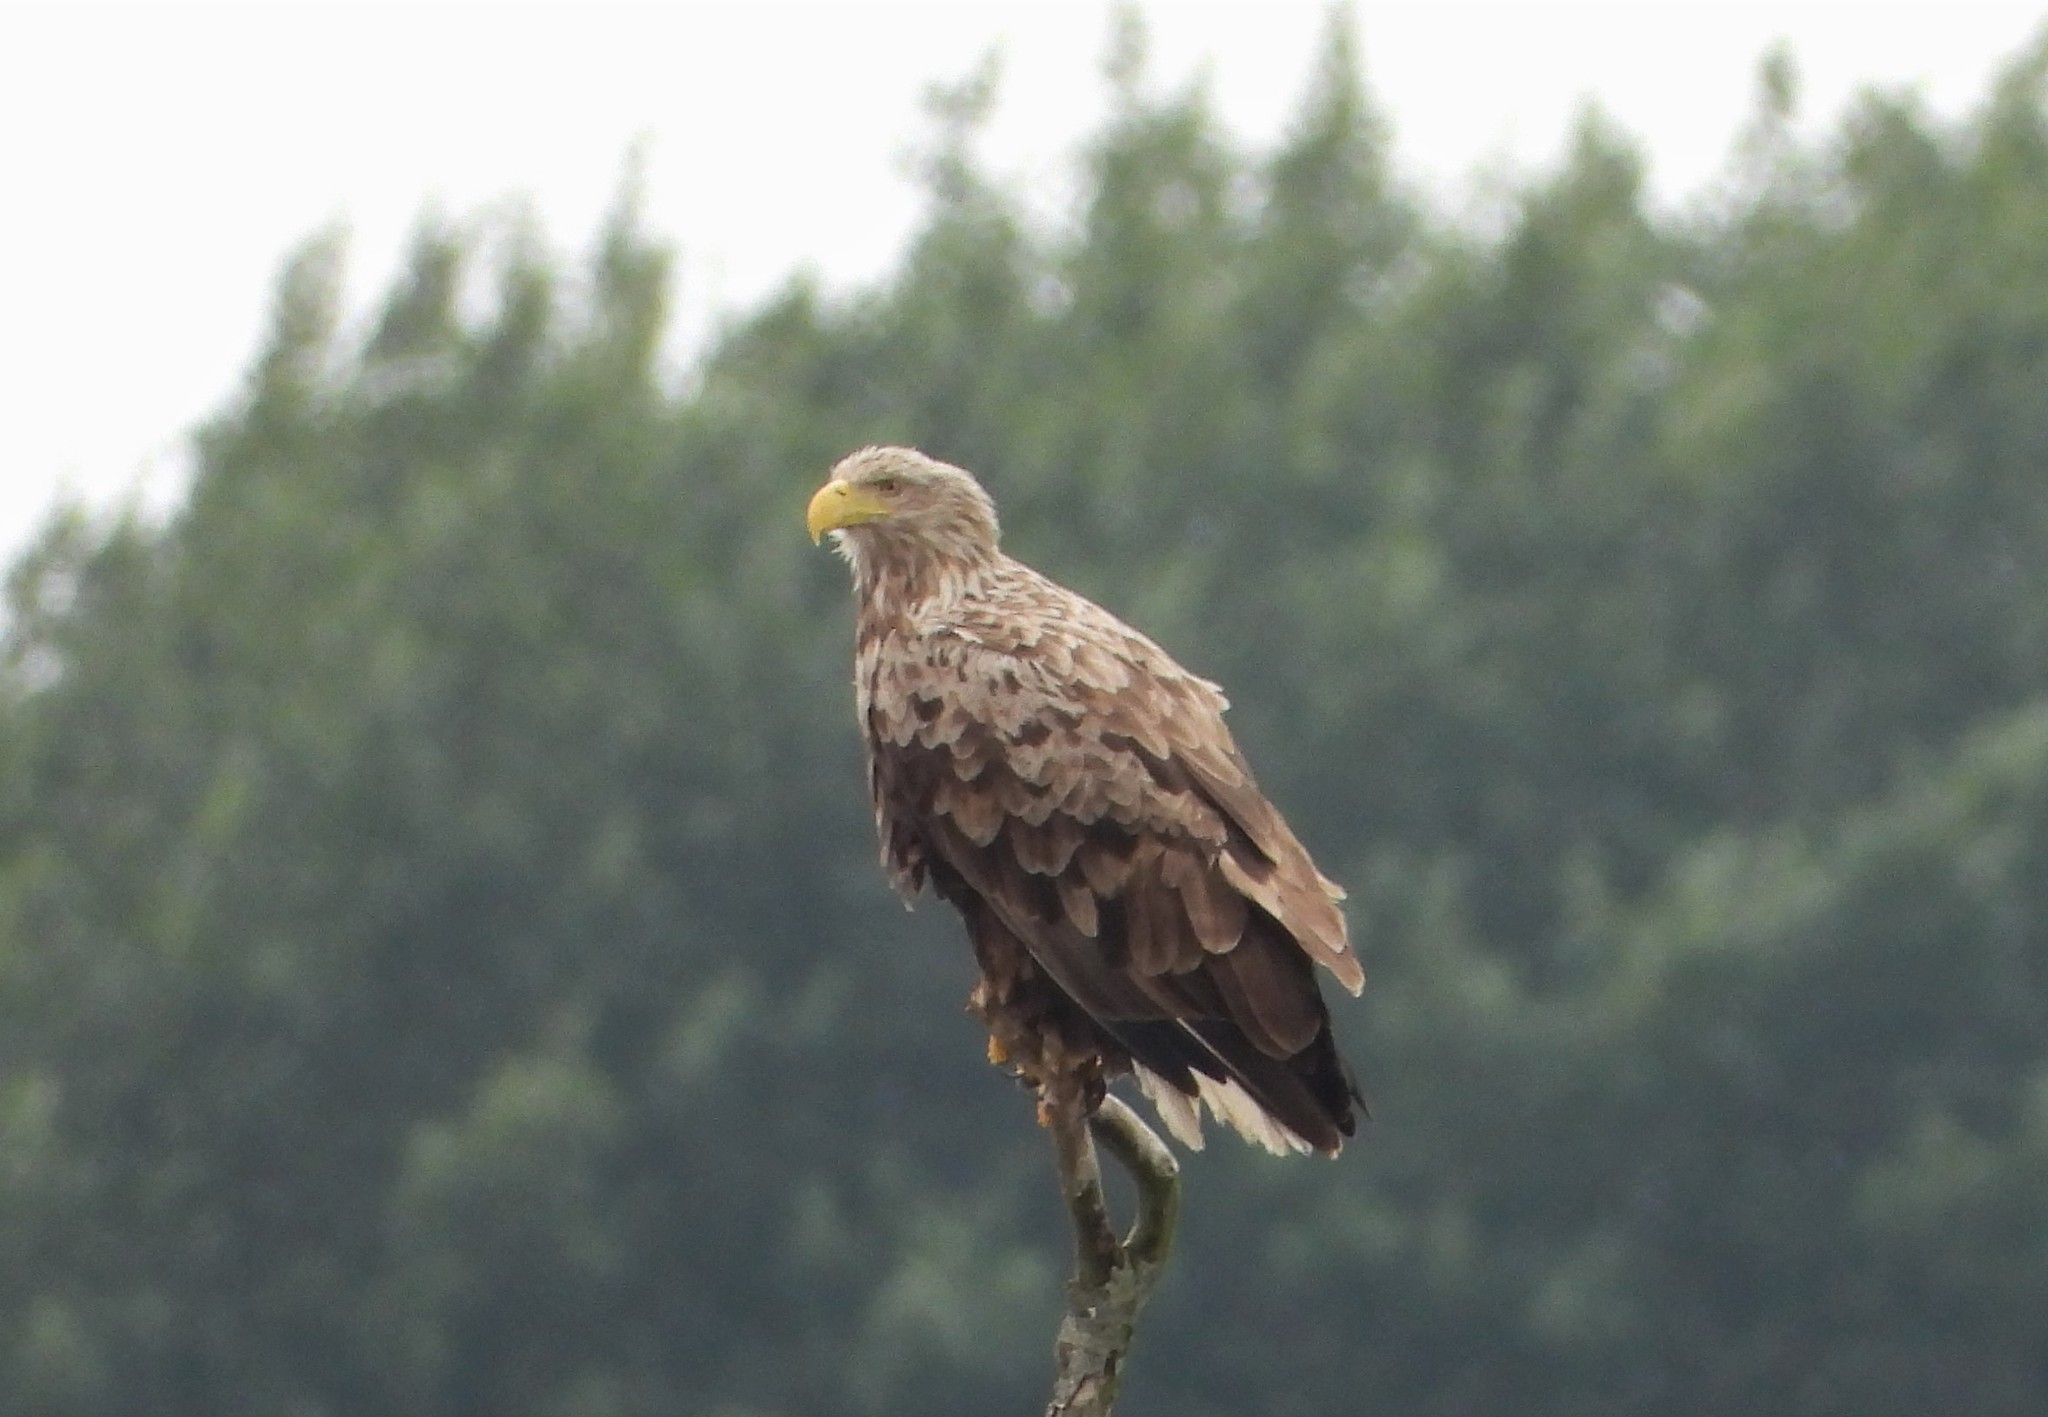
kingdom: Animalia
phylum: Chordata
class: Aves
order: Accipitriformes
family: Accipitridae
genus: Haliaeetus
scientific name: Haliaeetus albicilla
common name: White-tailed eagle
